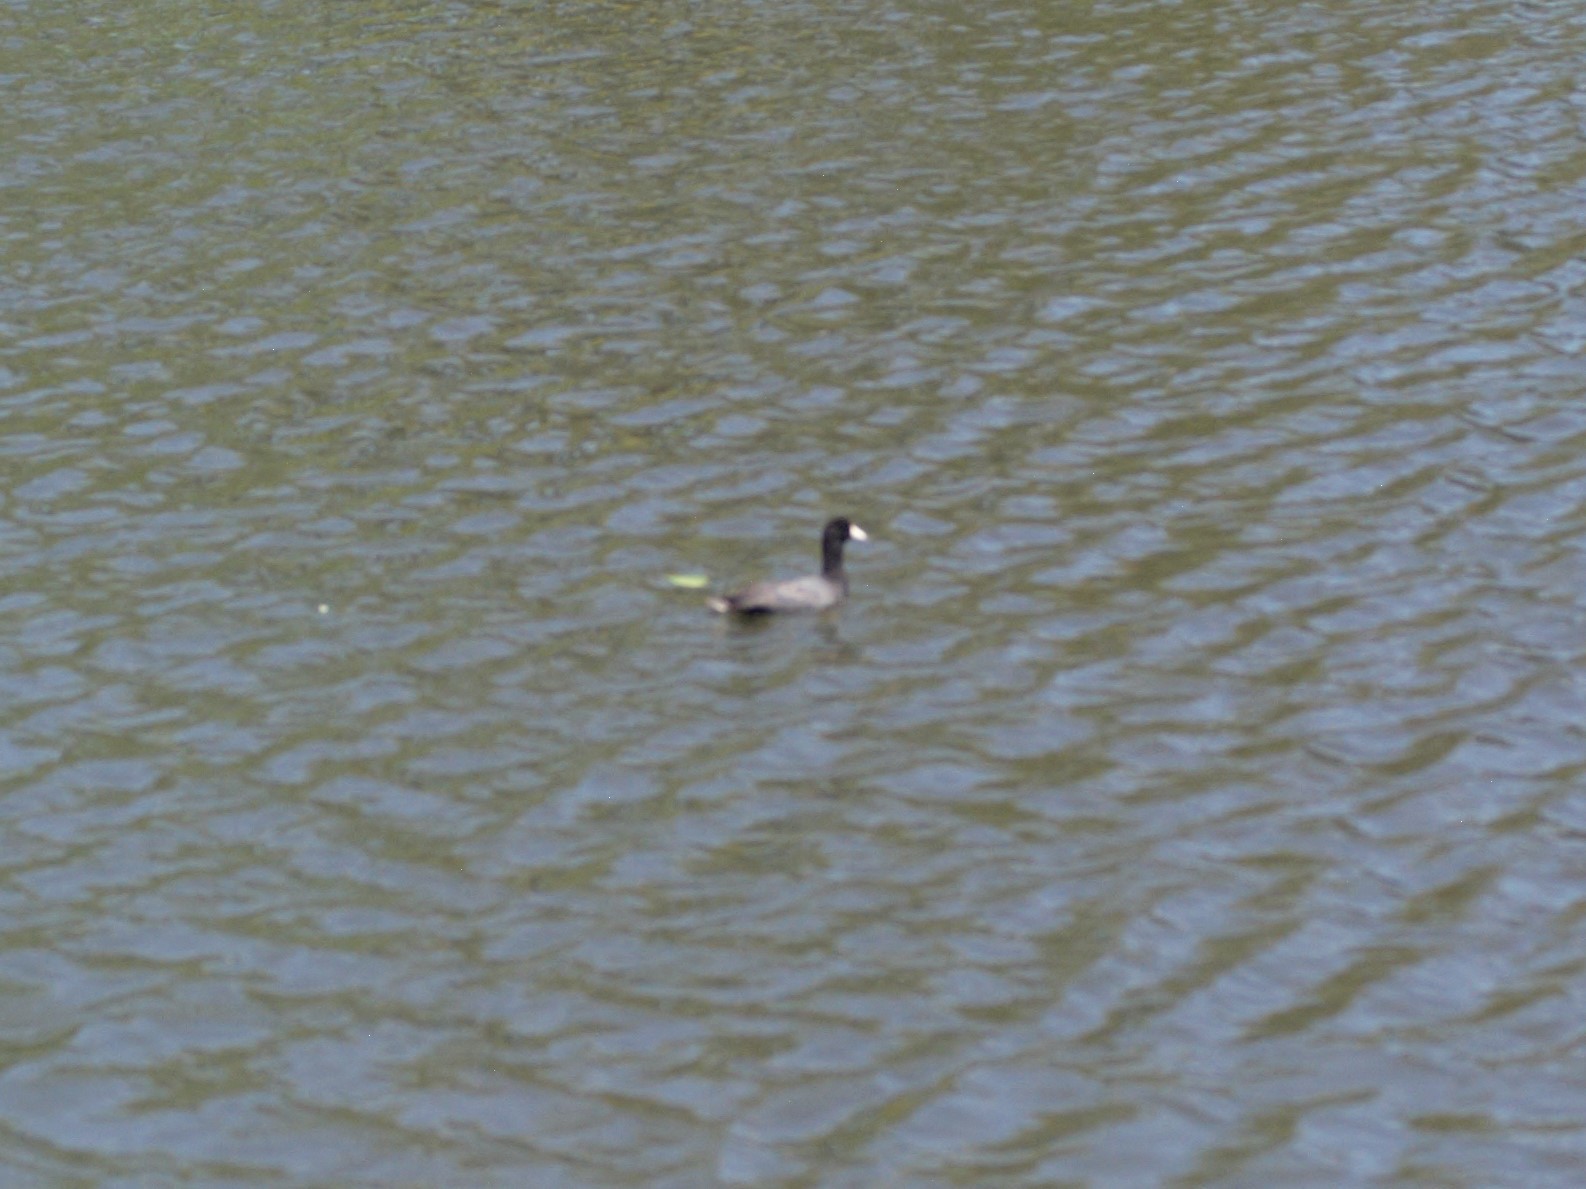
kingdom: Animalia
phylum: Chordata
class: Aves
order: Gruiformes
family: Rallidae
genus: Fulica
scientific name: Fulica americana
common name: American coot
